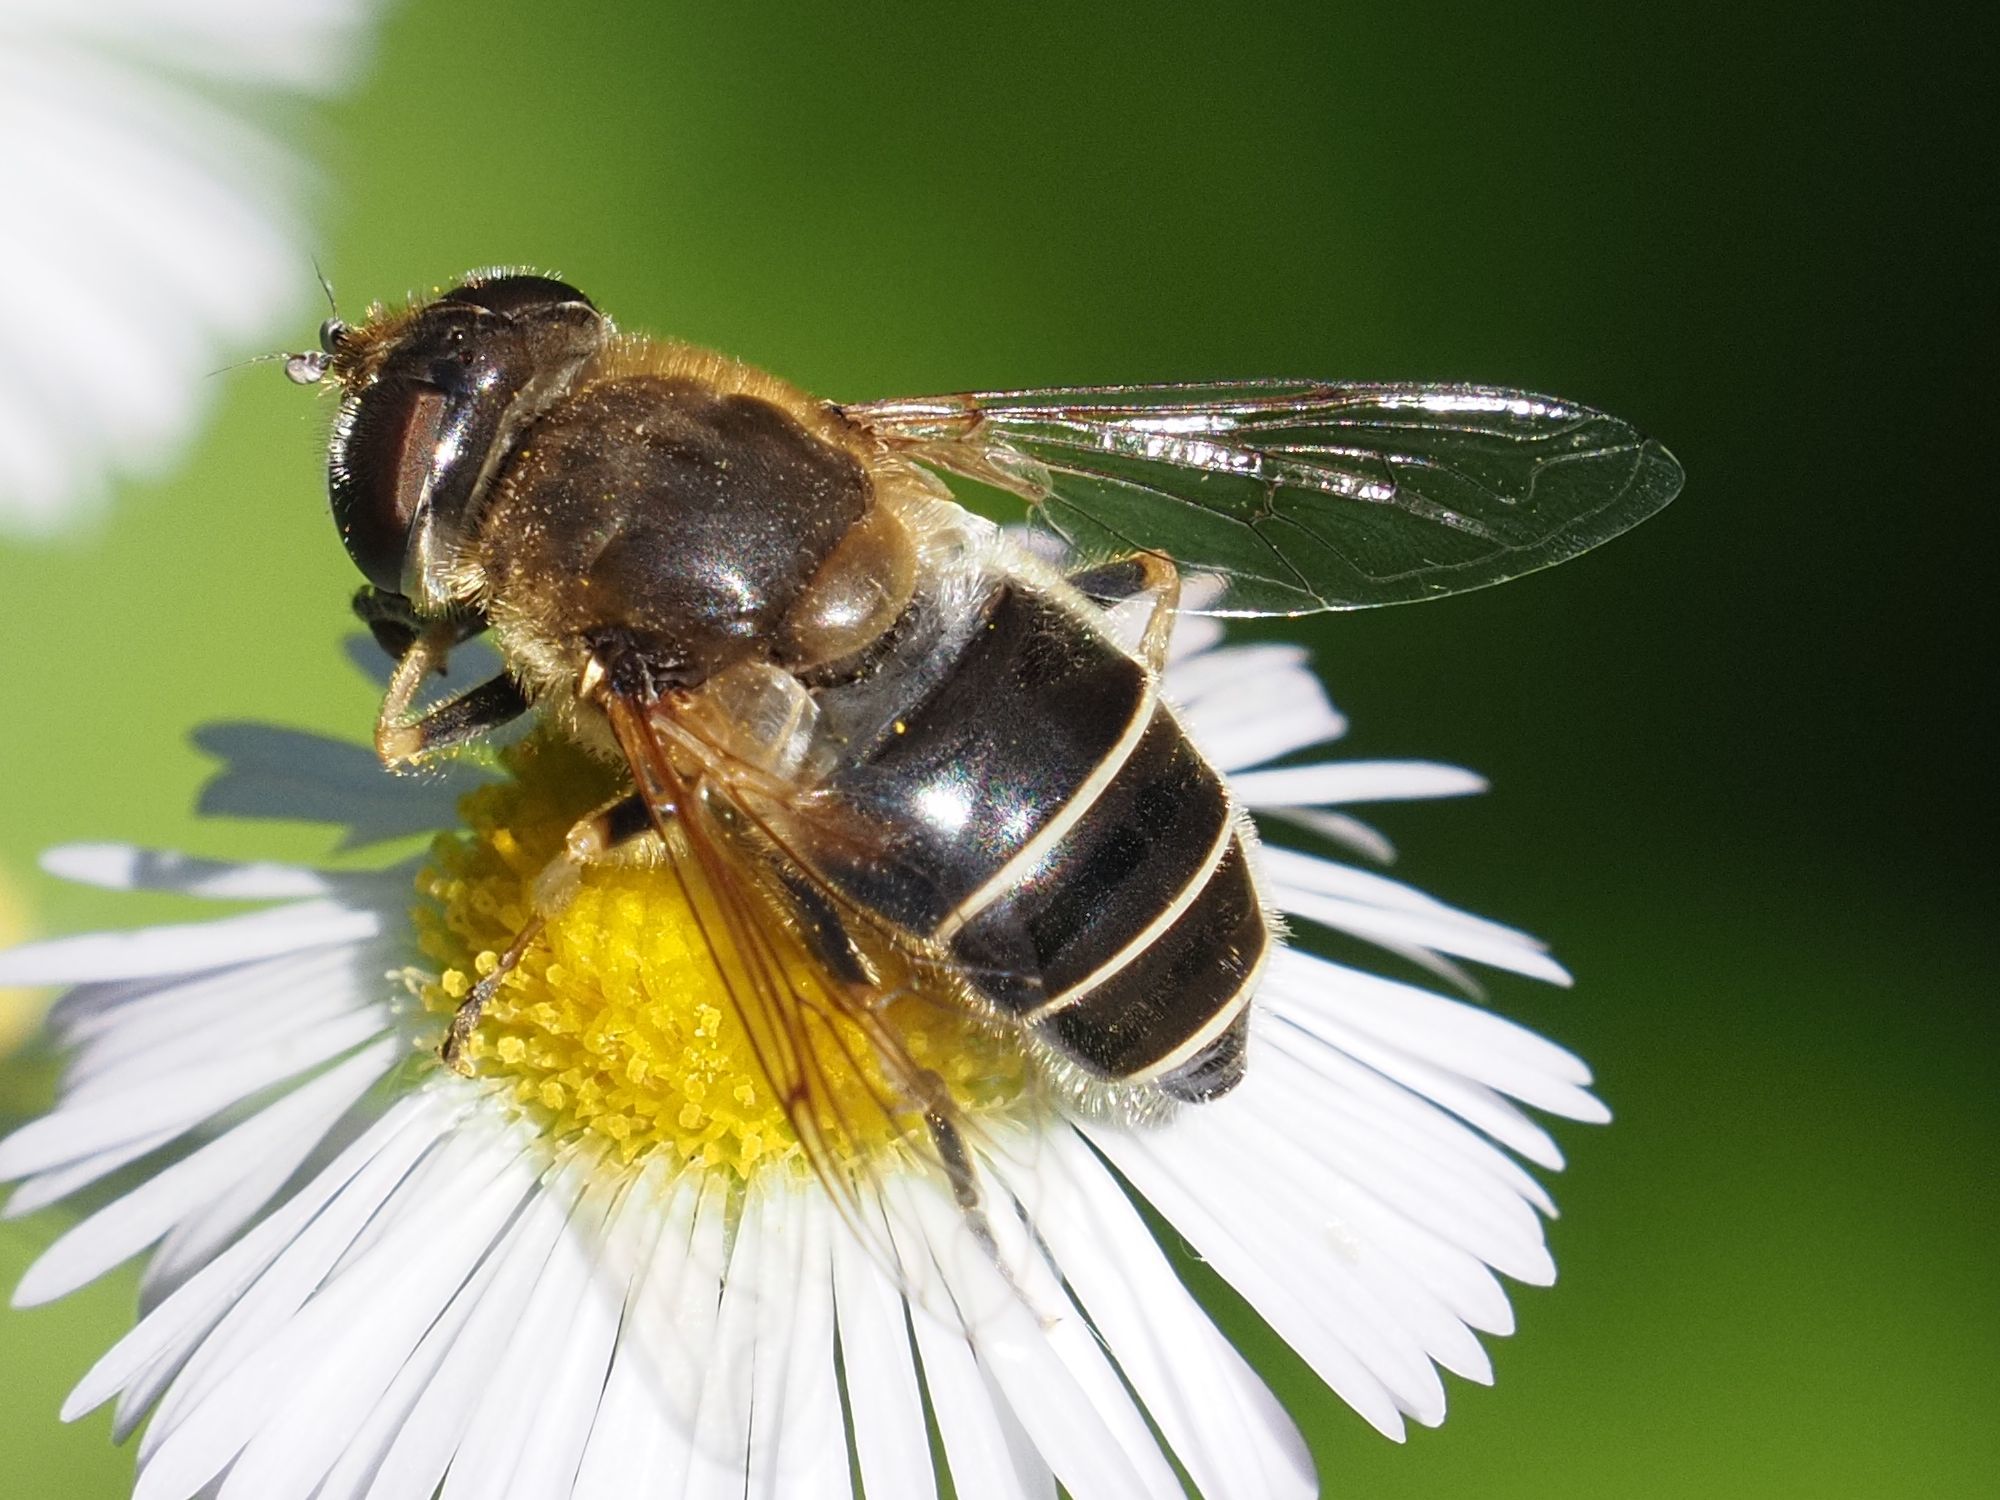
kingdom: Animalia
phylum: Arthropoda
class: Insecta
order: Diptera
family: Syrphidae
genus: Eristalis
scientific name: Eristalis nemorum
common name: Orange-spined drone fly
